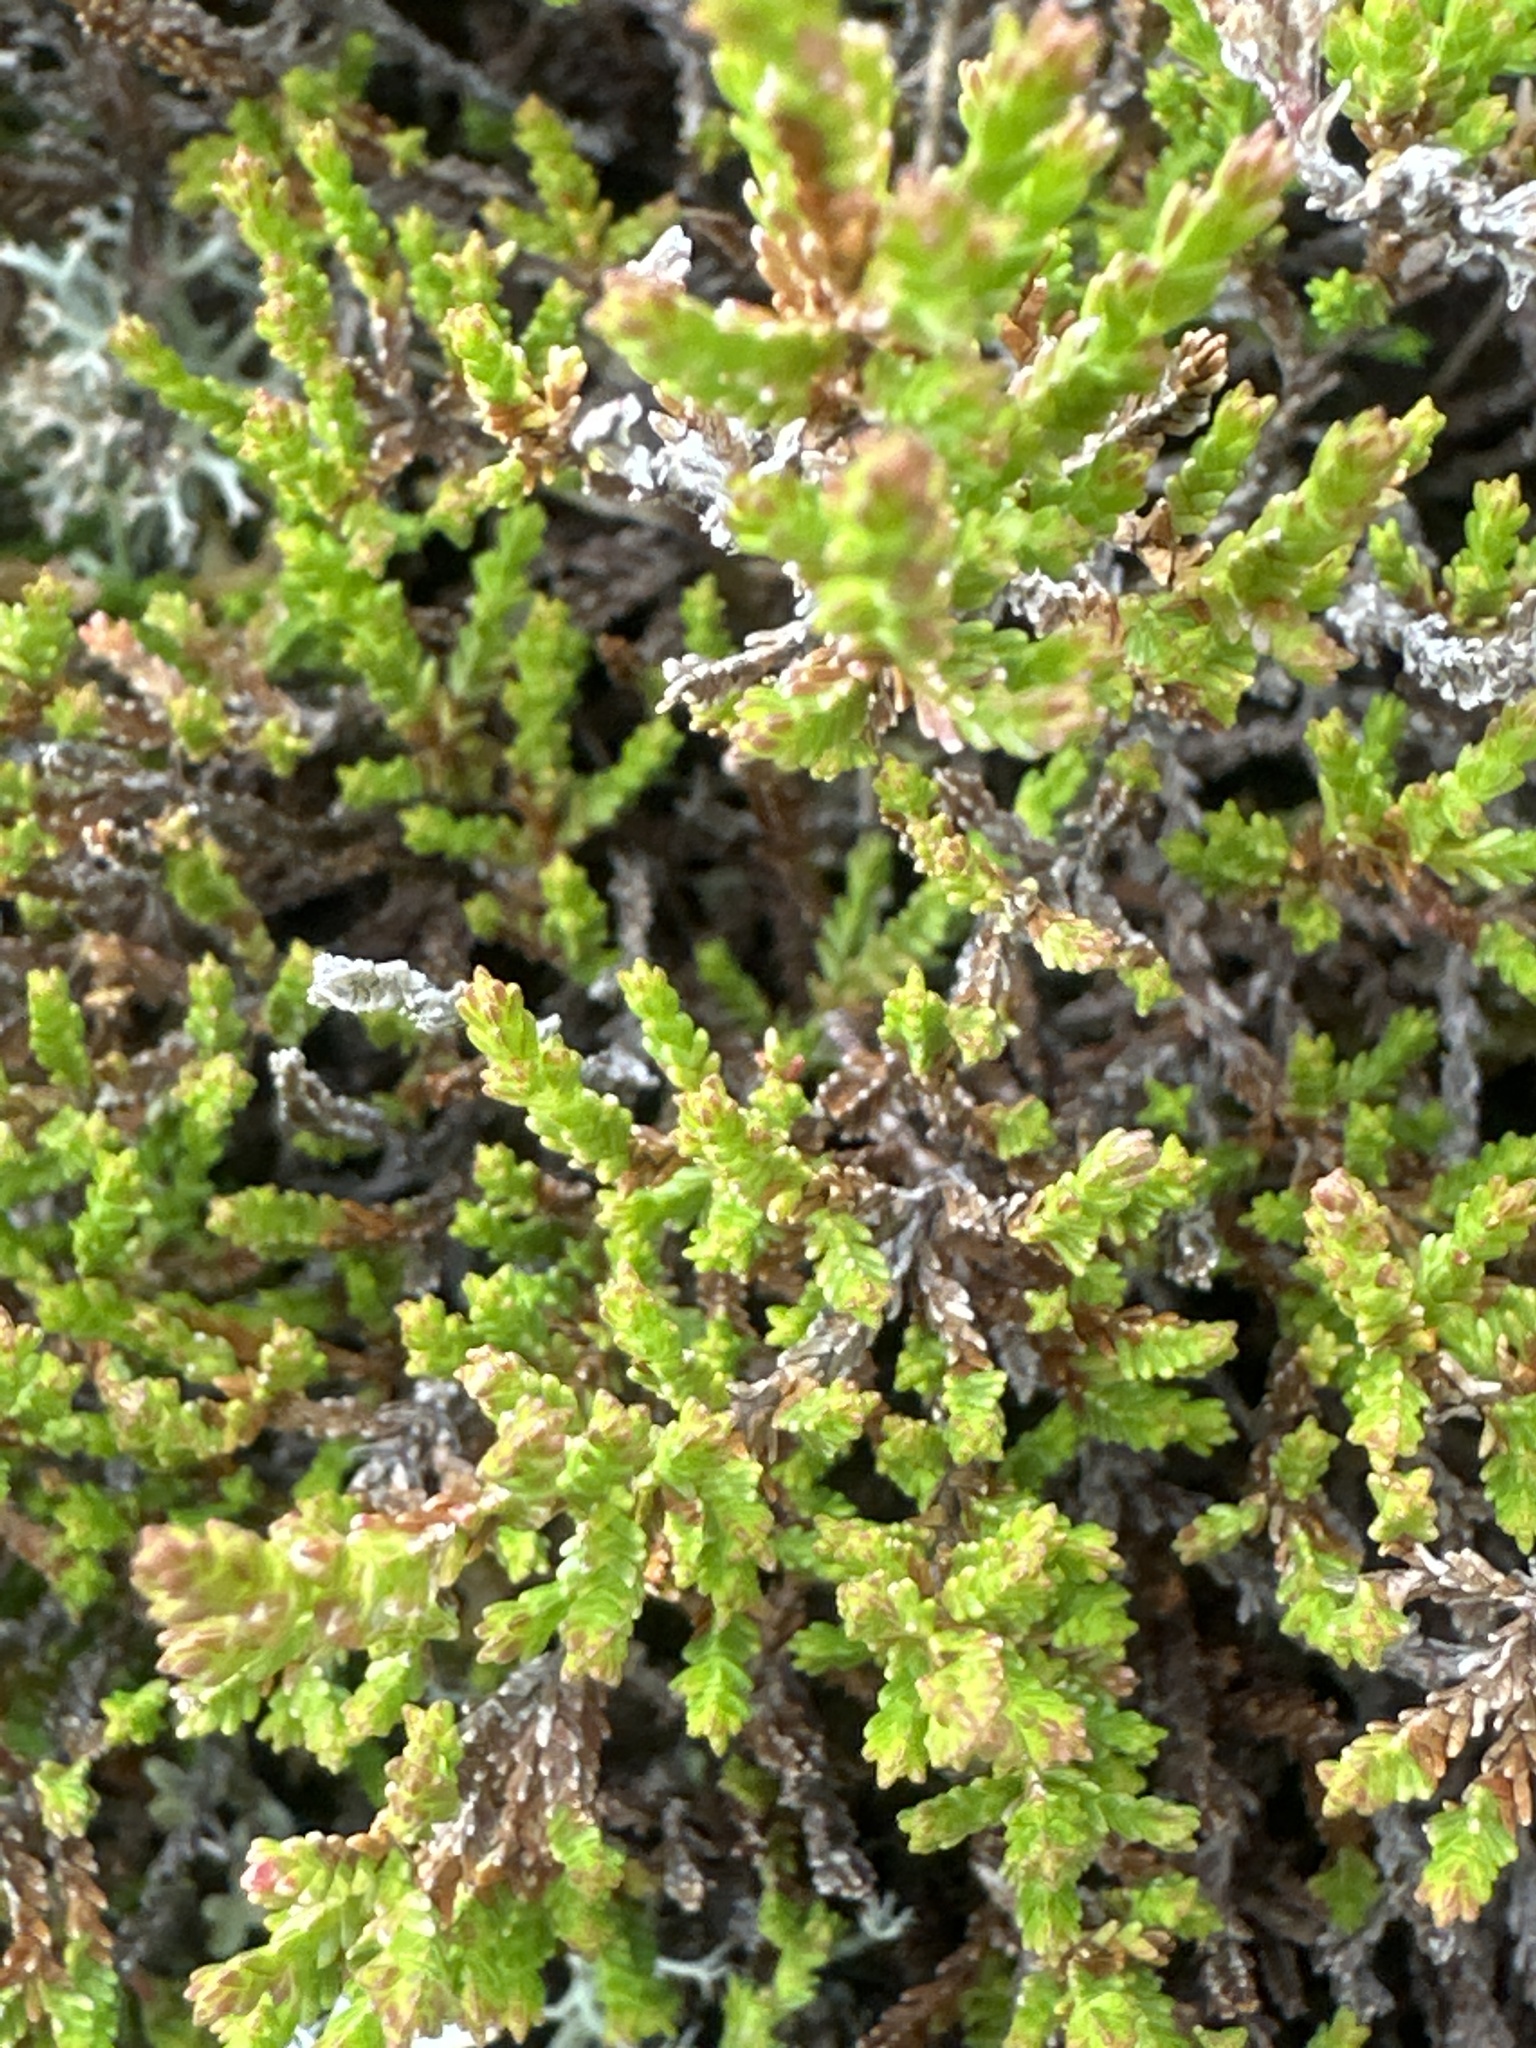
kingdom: Plantae
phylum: Tracheophyta
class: Magnoliopsida
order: Ericales
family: Ericaceae
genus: Calluna
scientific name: Calluna vulgaris
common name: Heather
